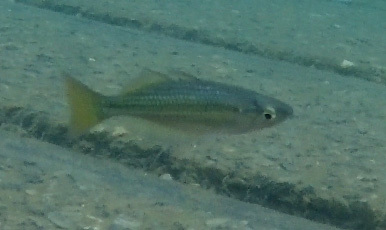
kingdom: Animalia
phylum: Chordata
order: Atheriniformes
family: Melanotaeniidae
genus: Melanotaenia
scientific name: Melanotaenia splendida
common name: Checkered rainbowfish
